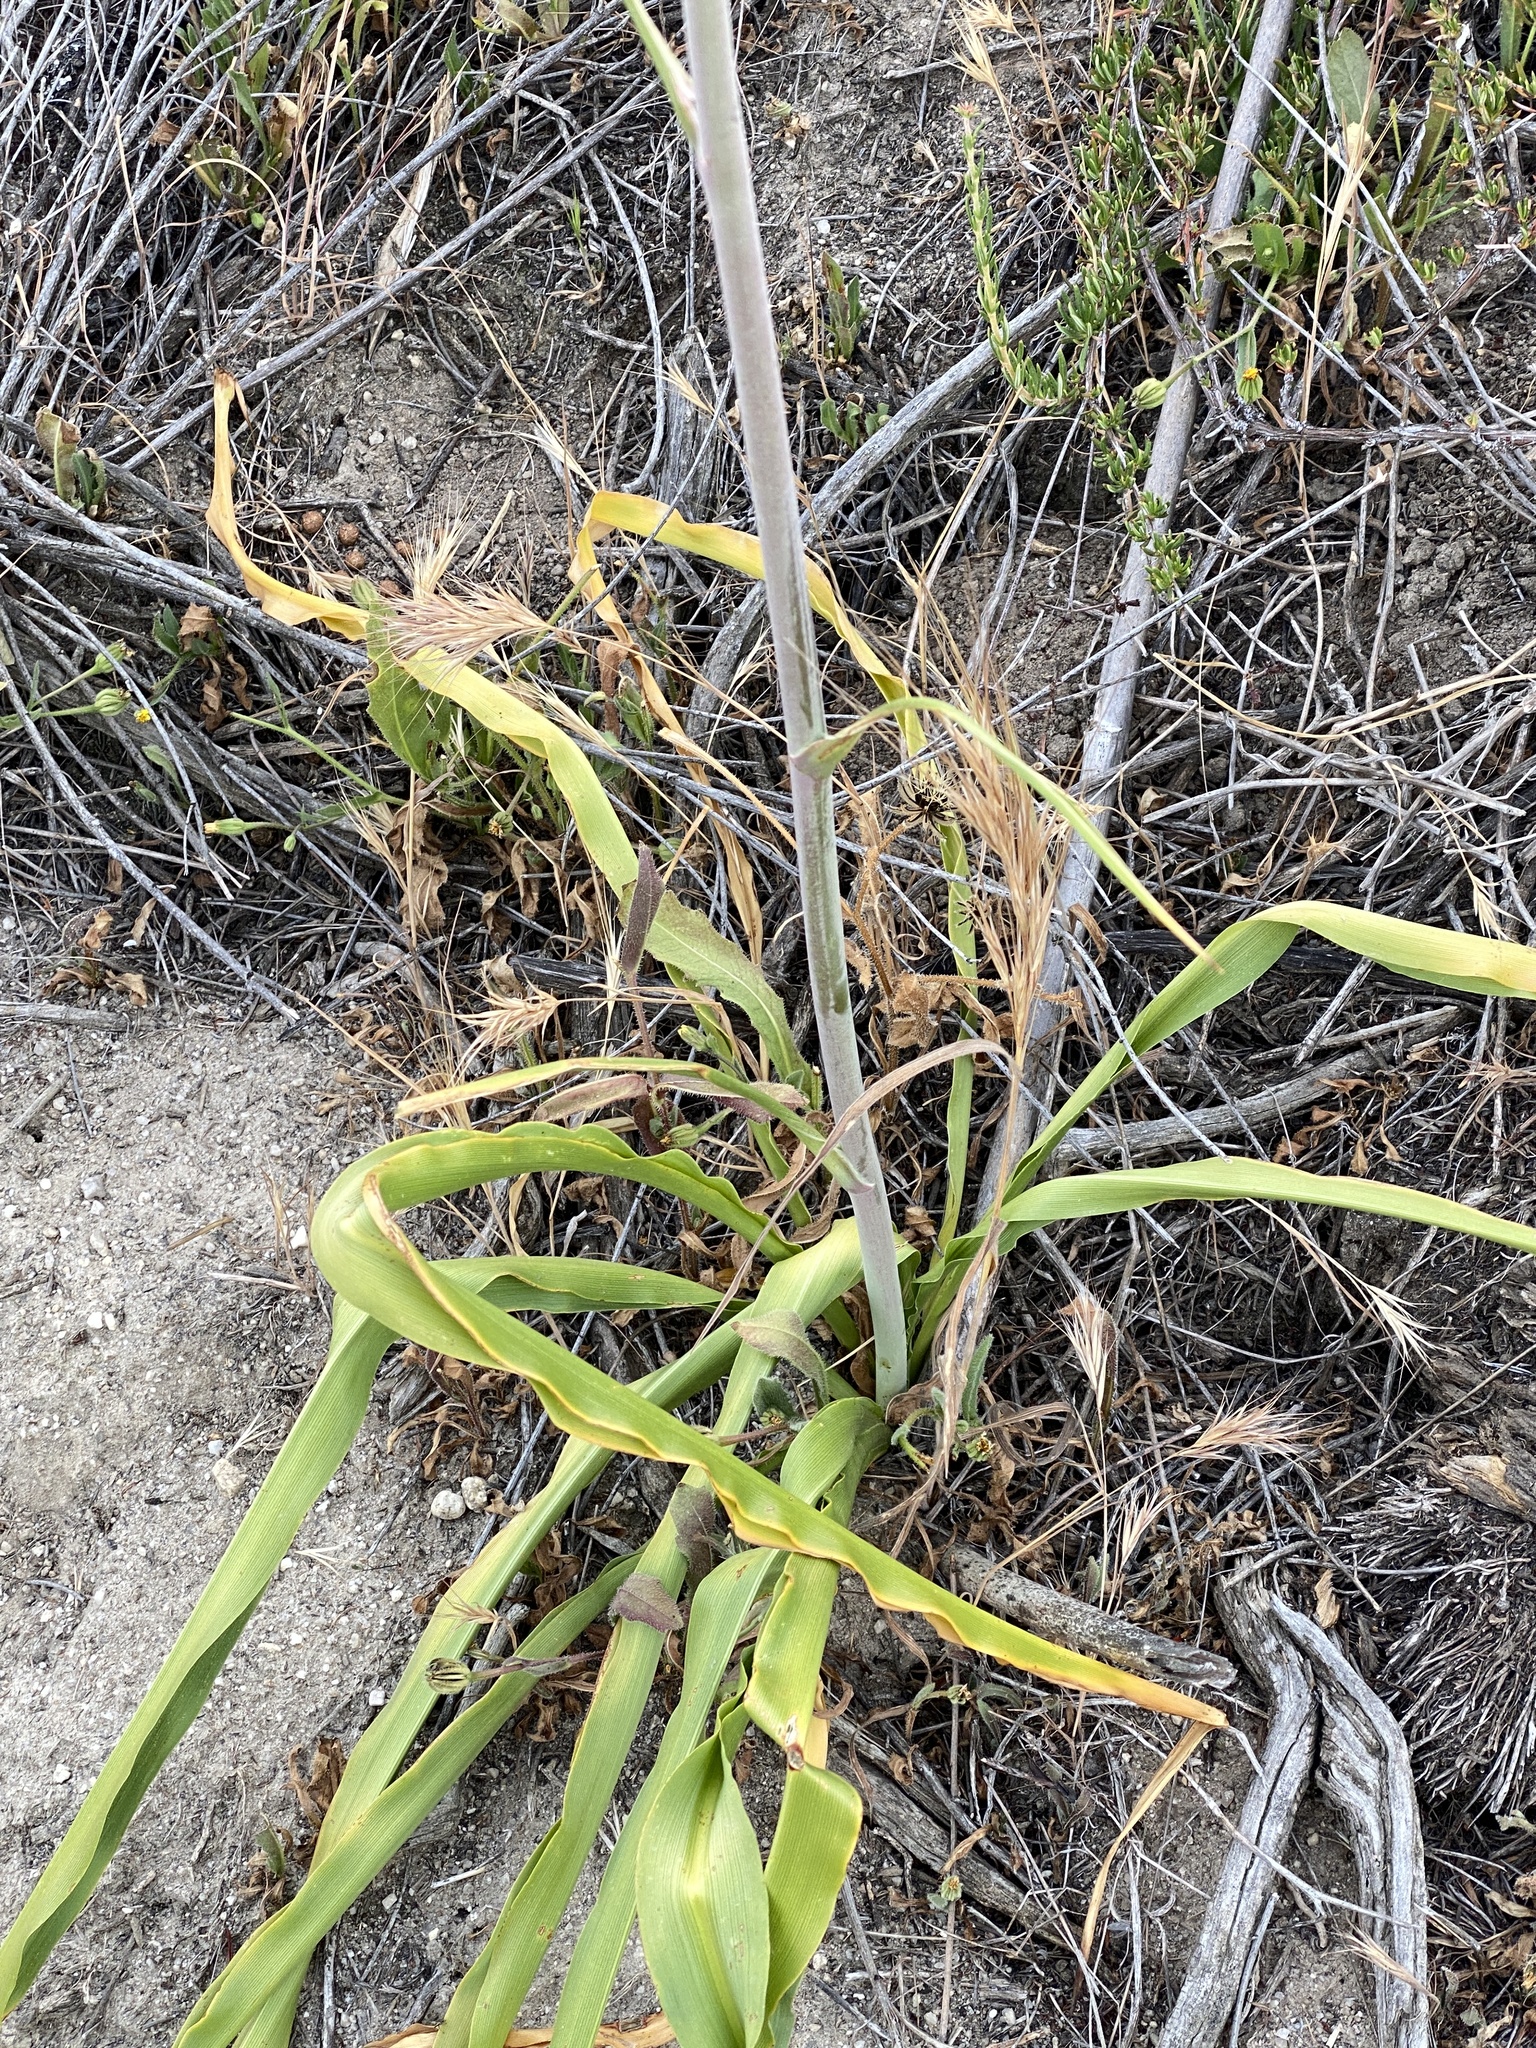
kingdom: Plantae
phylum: Tracheophyta
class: Liliopsida
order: Asparagales
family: Asparagaceae
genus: Chlorogalum
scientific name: Chlorogalum pomeridianum
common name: Amole
